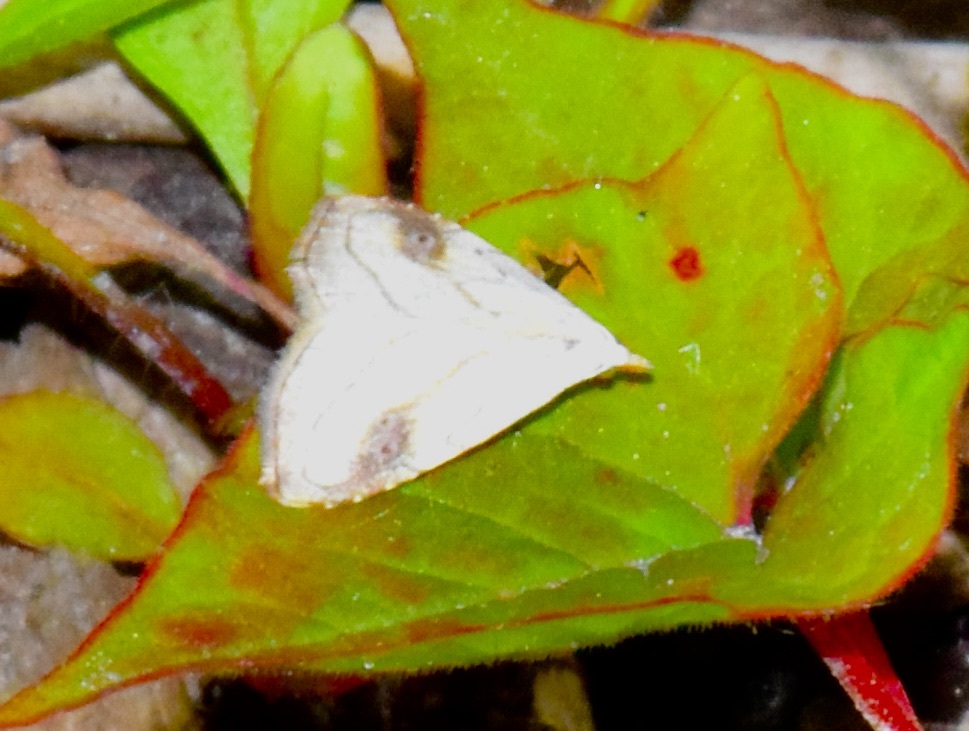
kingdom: Animalia
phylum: Arthropoda
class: Insecta
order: Lepidoptera
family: Erebidae
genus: Rivula
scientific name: Rivula propinqualis
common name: Spotted grass moth
